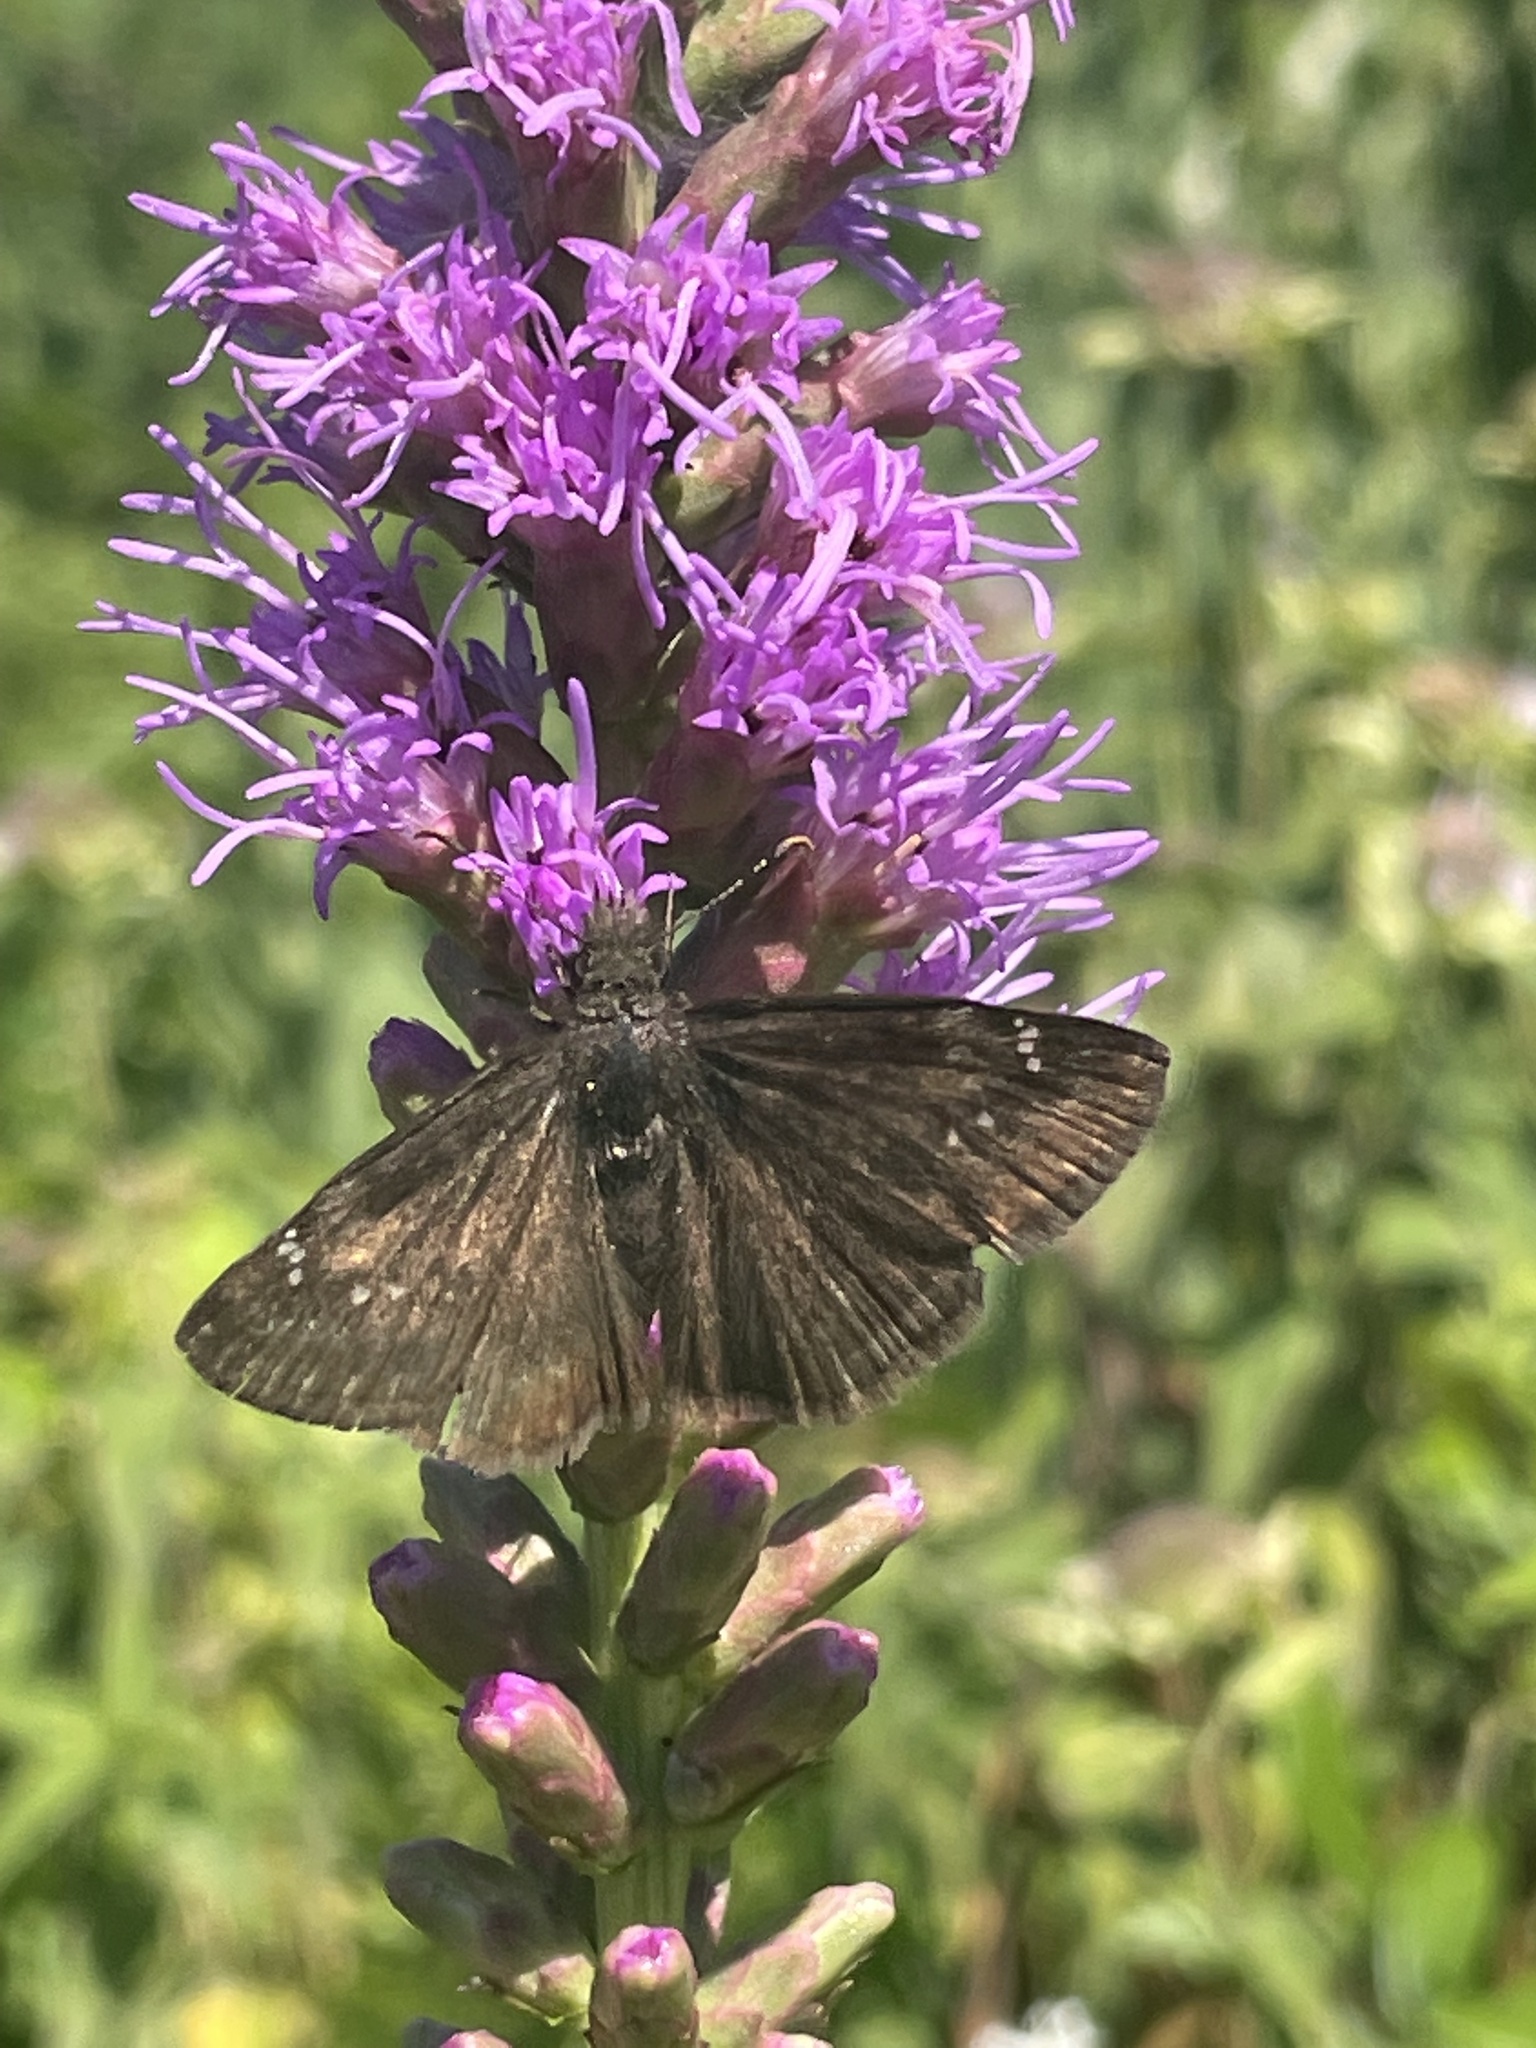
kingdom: Animalia
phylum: Arthropoda
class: Insecta
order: Lepidoptera
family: Hesperiidae
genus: Erynnis
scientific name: Erynnis baptisiae
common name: Wild indigo duskywing
